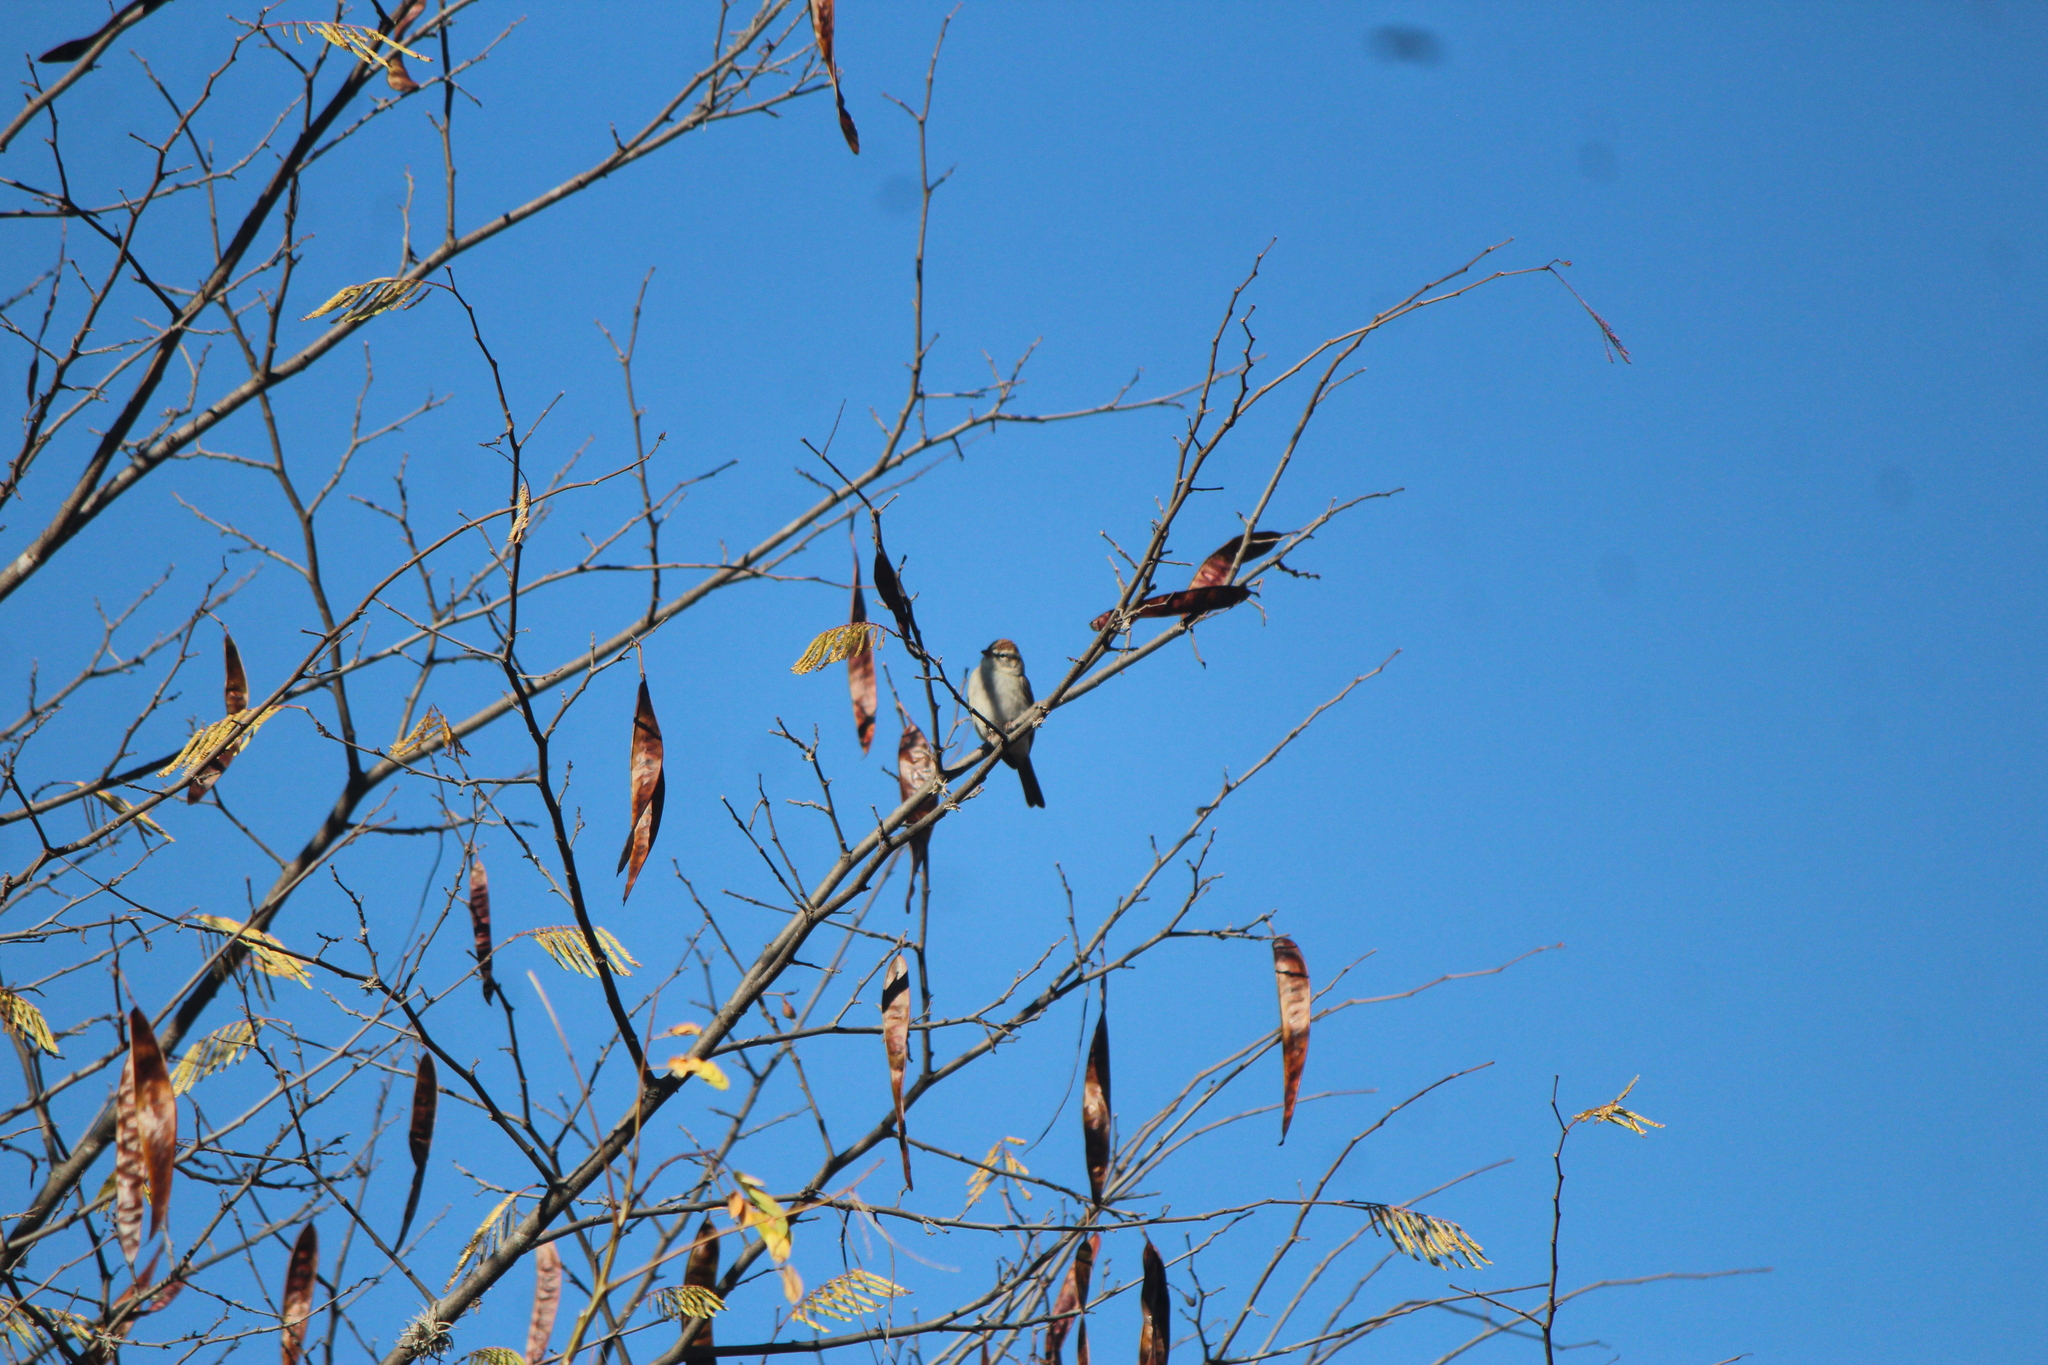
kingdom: Animalia
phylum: Chordata
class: Aves
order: Passeriformes
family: Passerellidae
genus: Spizella
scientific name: Spizella passerina
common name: Chipping sparrow
